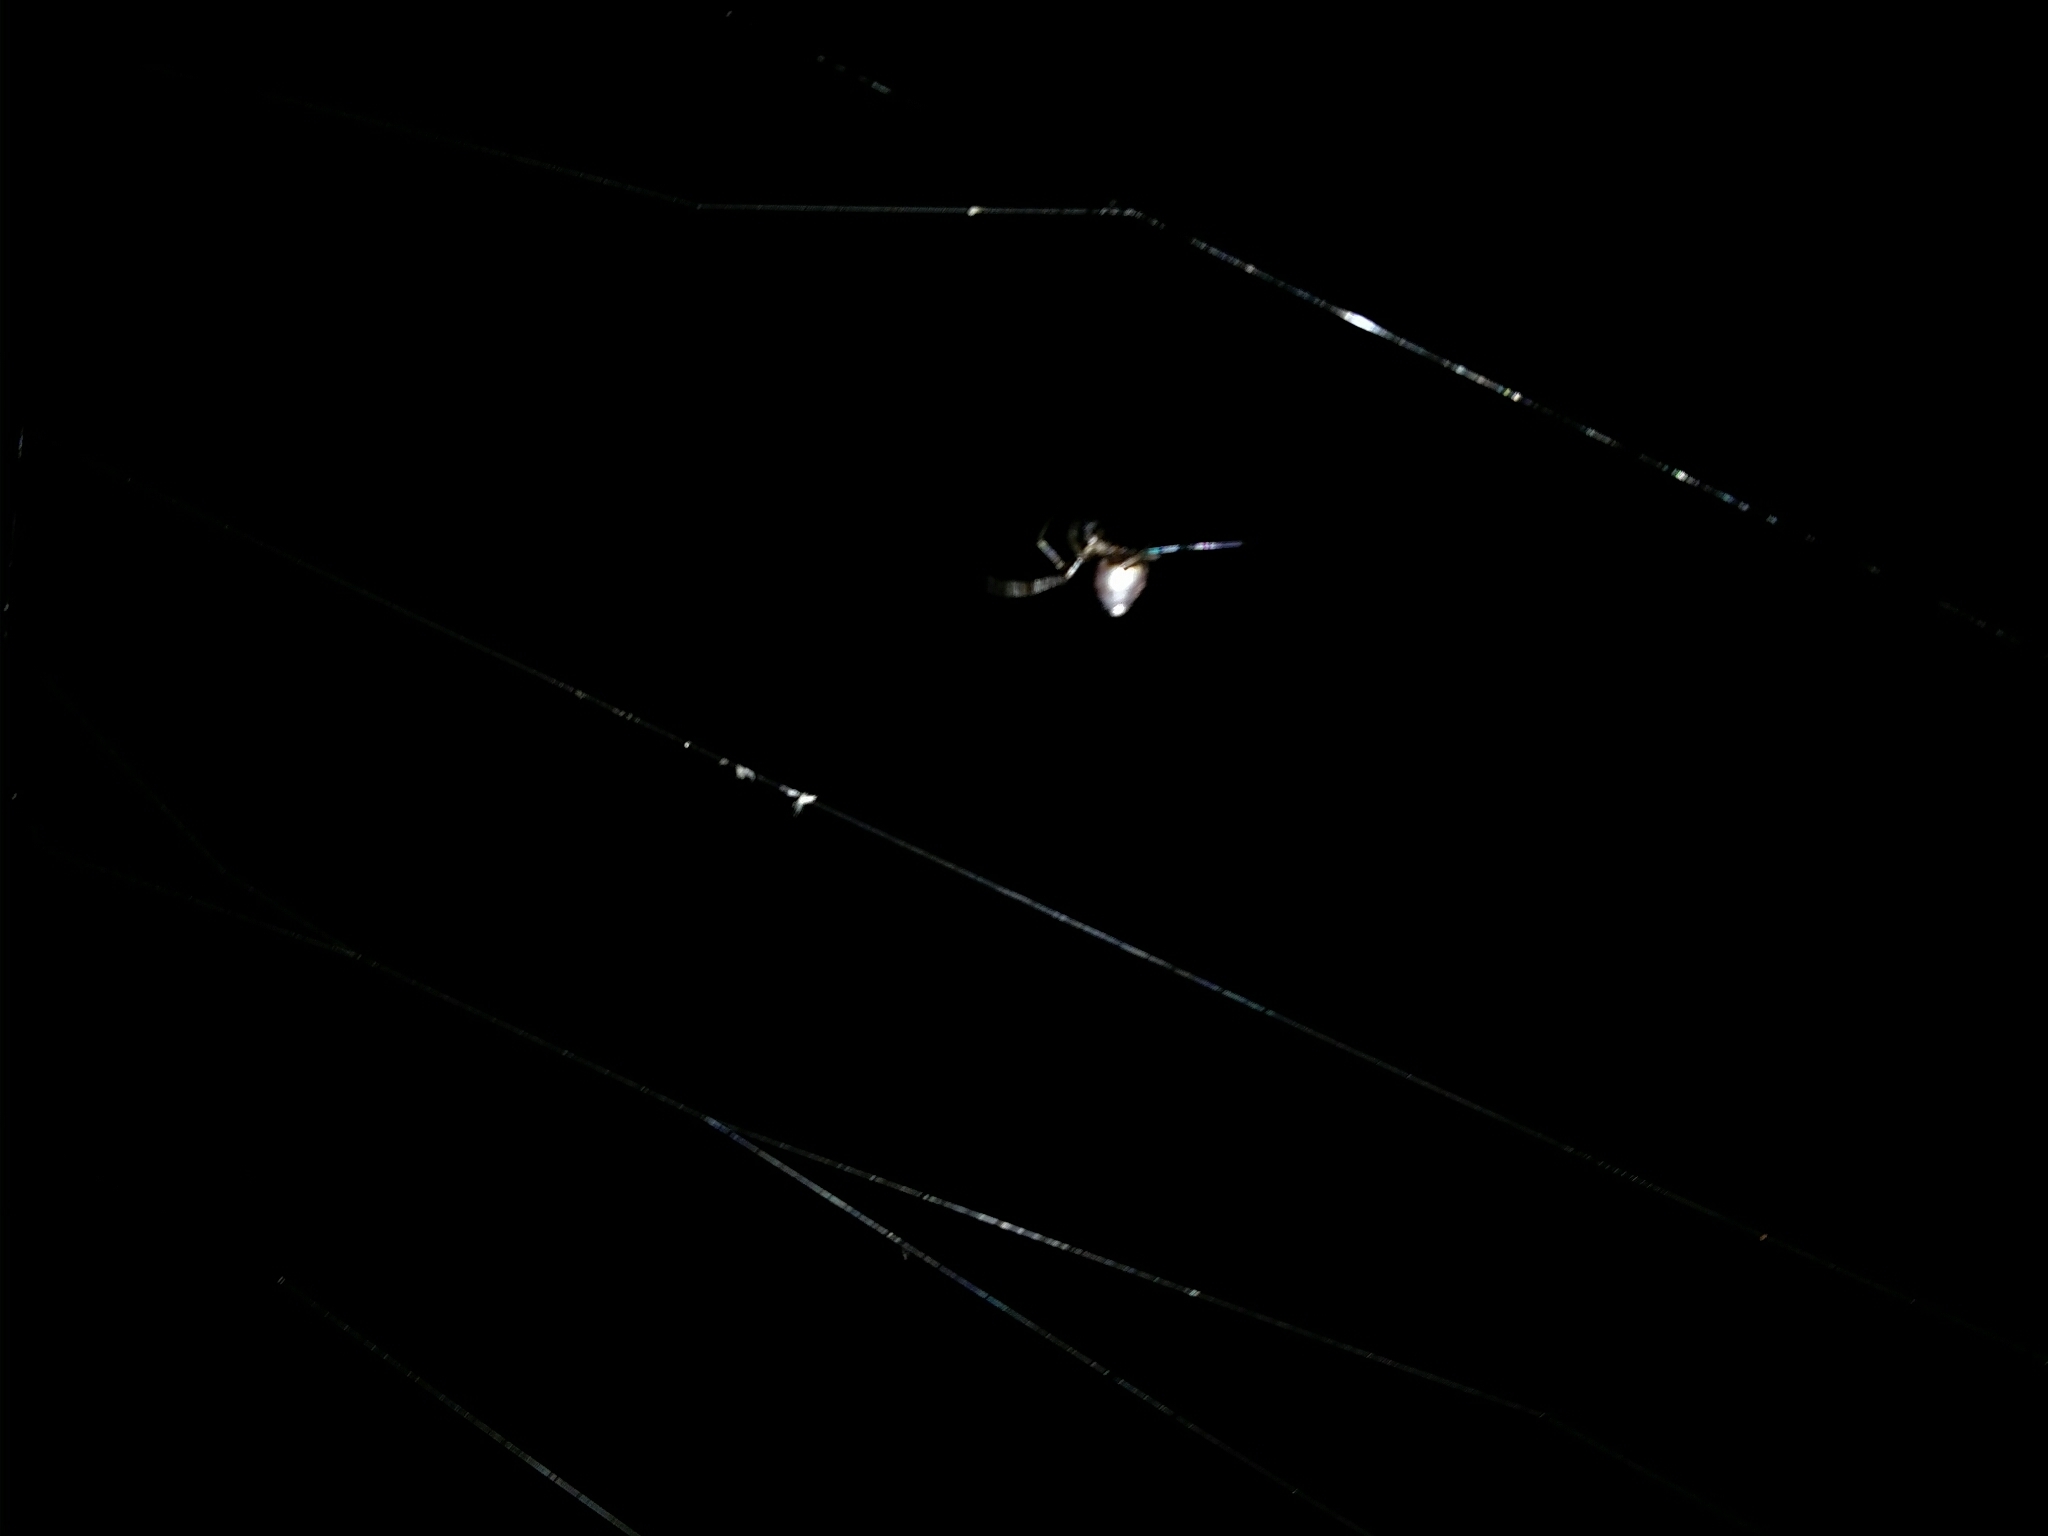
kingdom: Animalia
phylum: Arthropoda
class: Arachnida
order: Araneae
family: Theridiidae
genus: Argyrodes
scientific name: Argyrodes antipodianus
